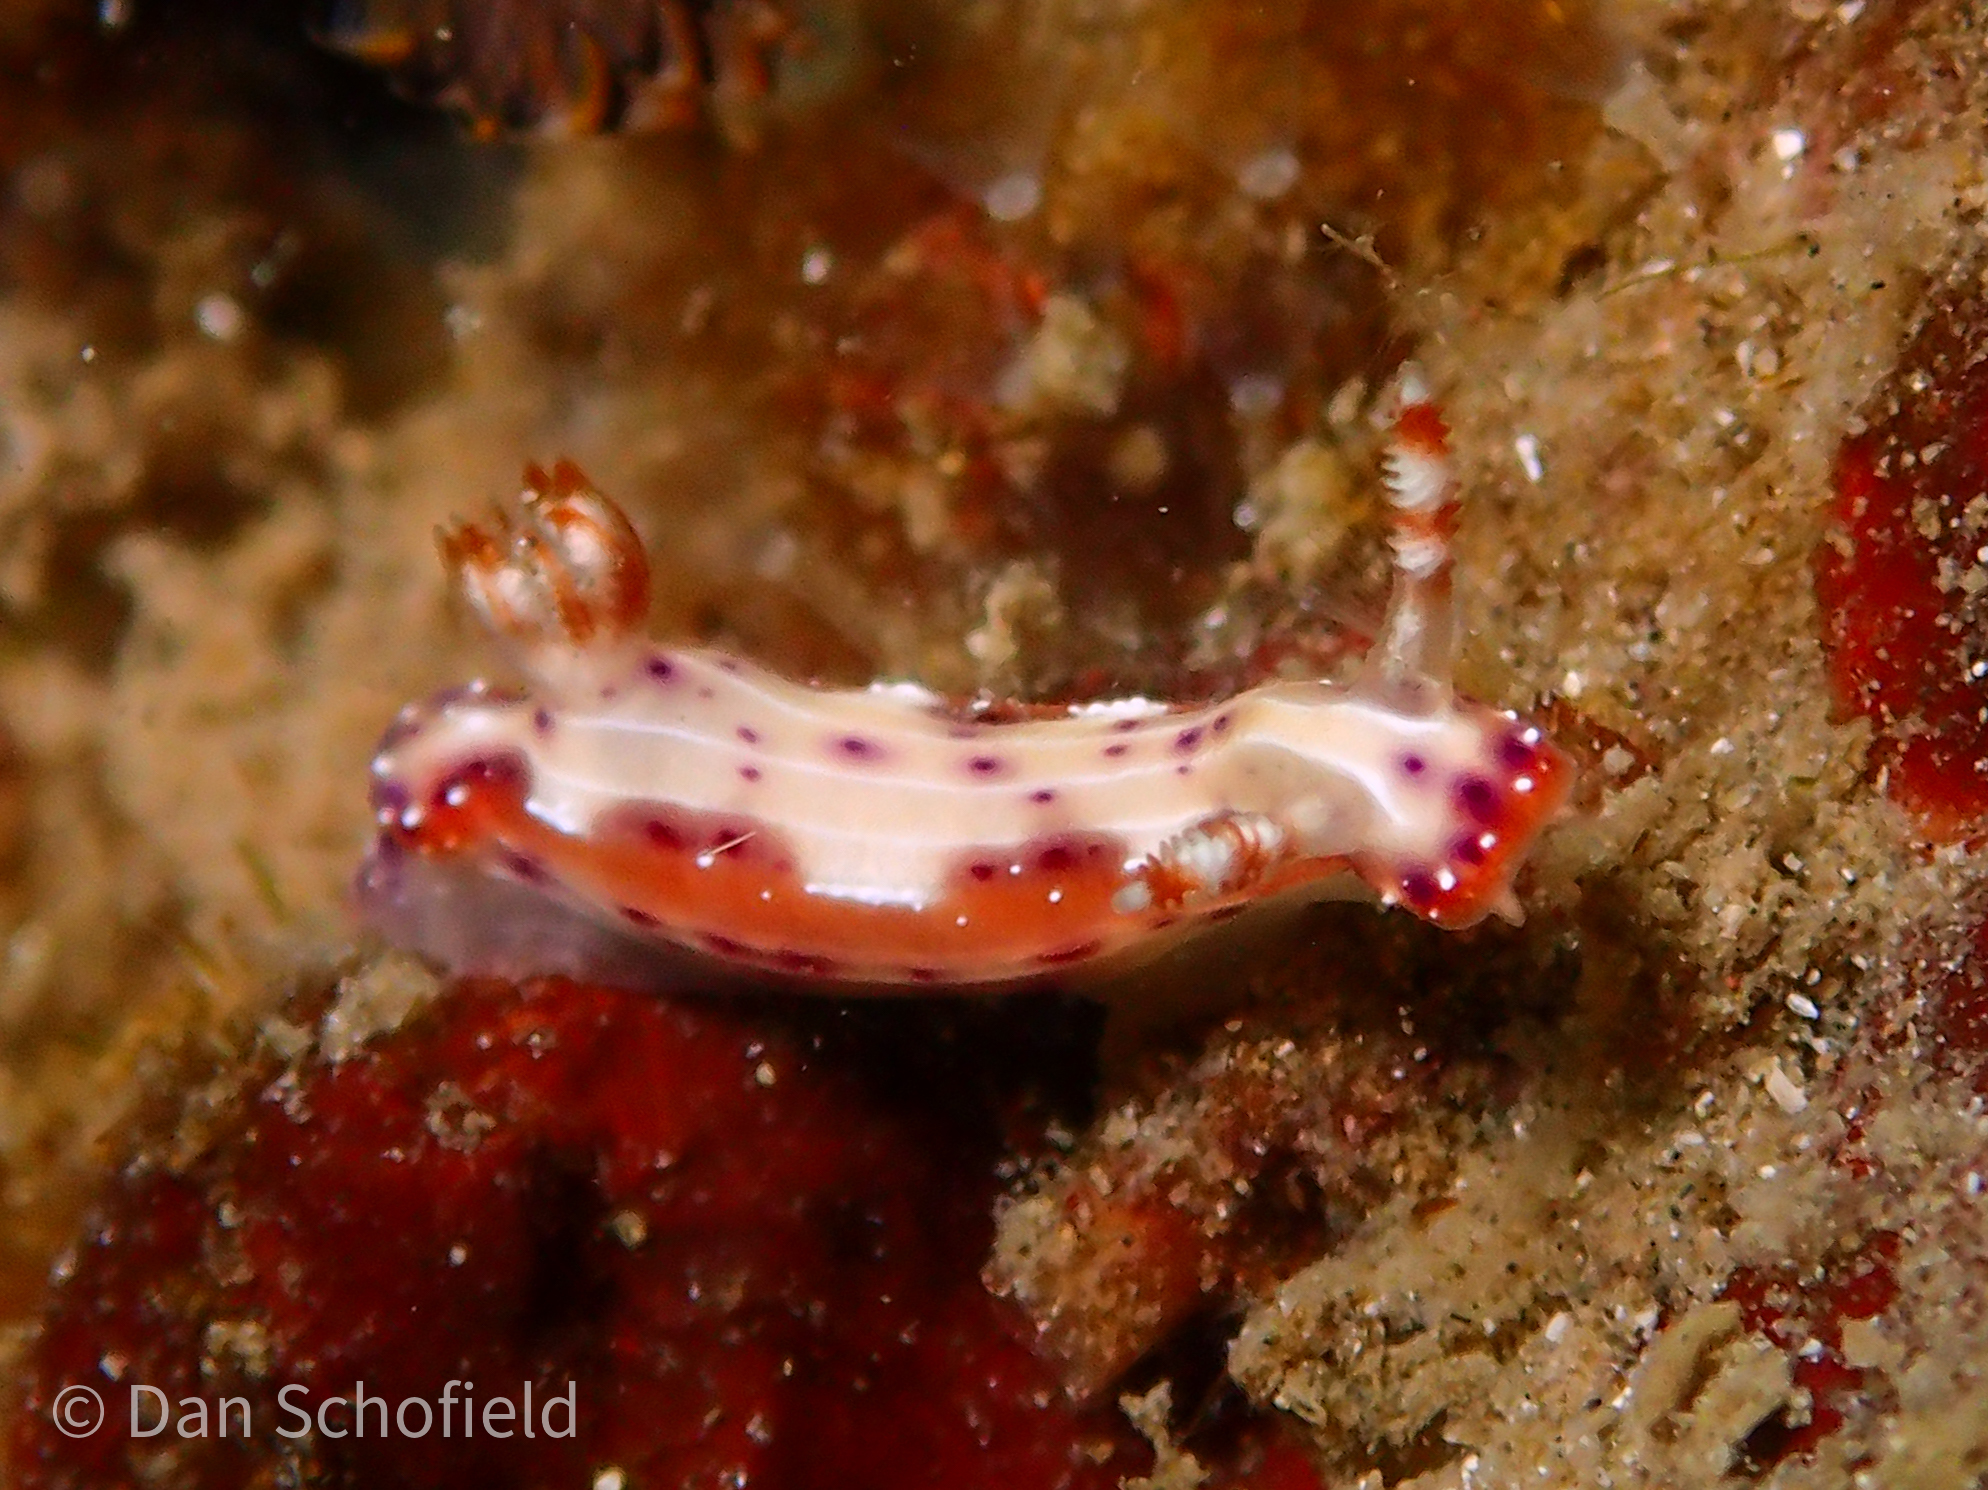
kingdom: Animalia
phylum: Mollusca
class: Gastropoda
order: Nudibranchia
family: Chromodorididae
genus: Hypselodoris
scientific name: Hypselodoris decorata
